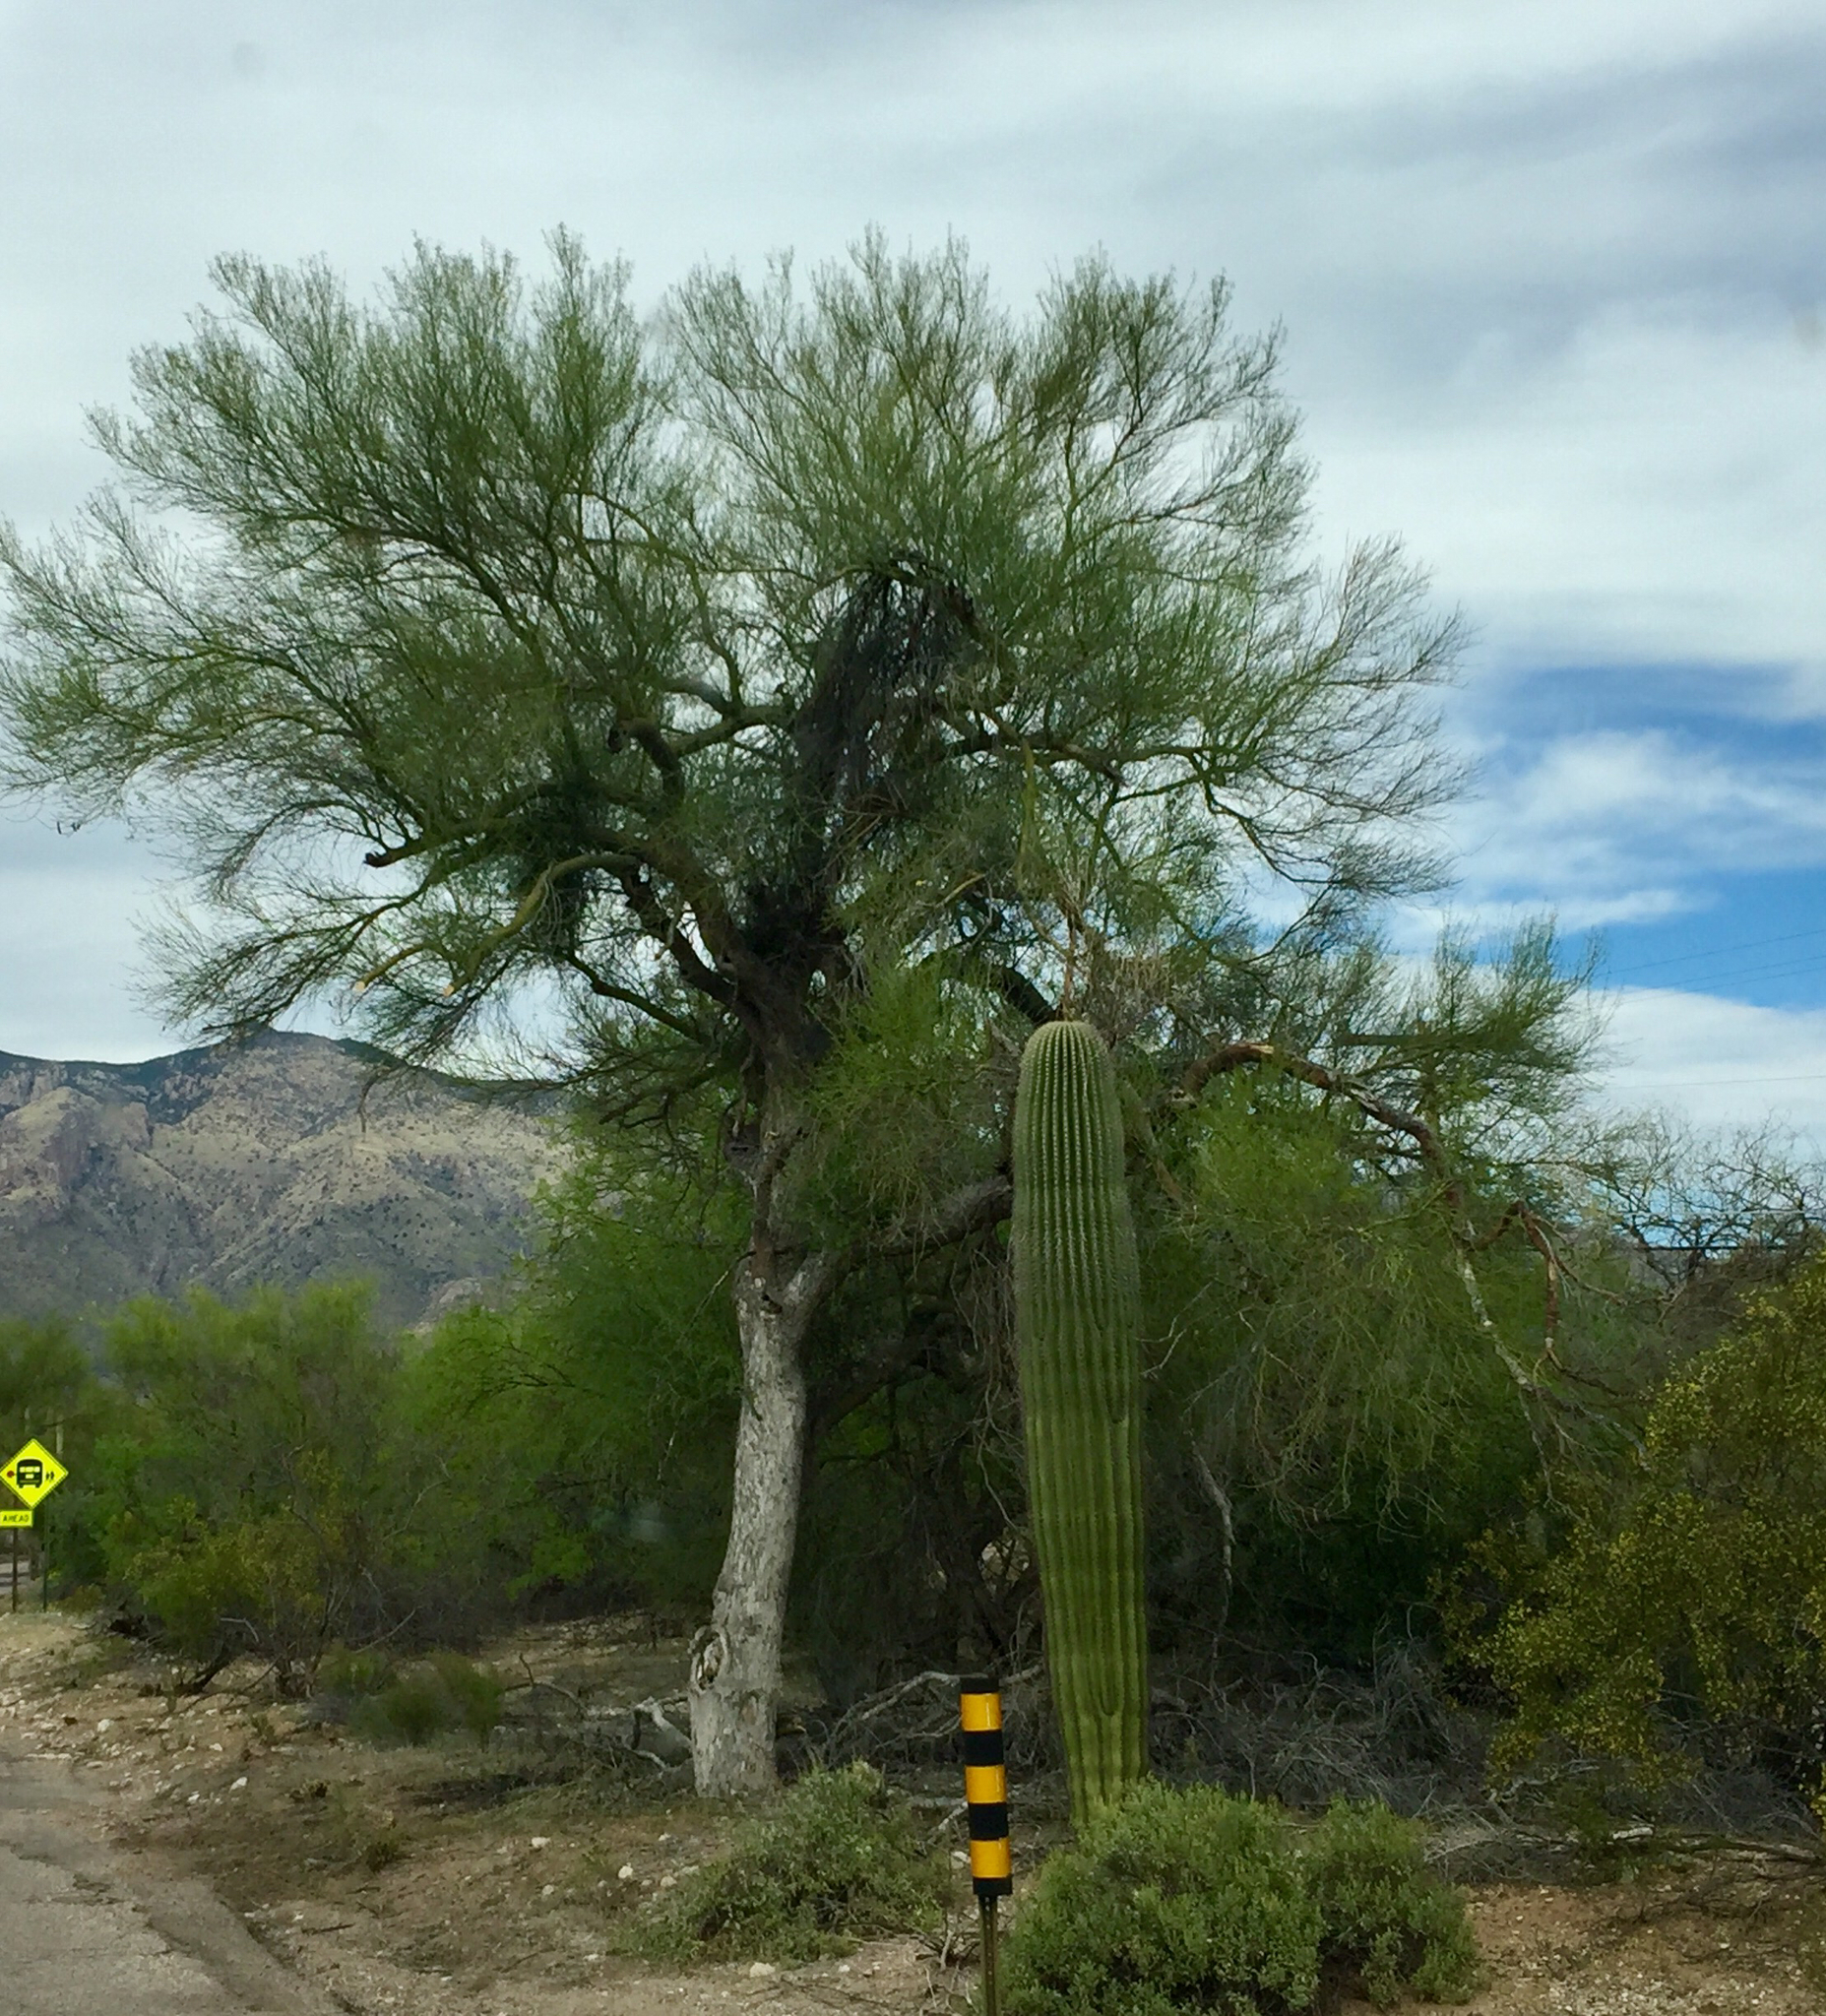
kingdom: Plantae
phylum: Tracheophyta
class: Magnoliopsida
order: Fabales
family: Fabaceae
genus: Parkinsonia
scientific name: Parkinsonia florida
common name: Blue paloverde
